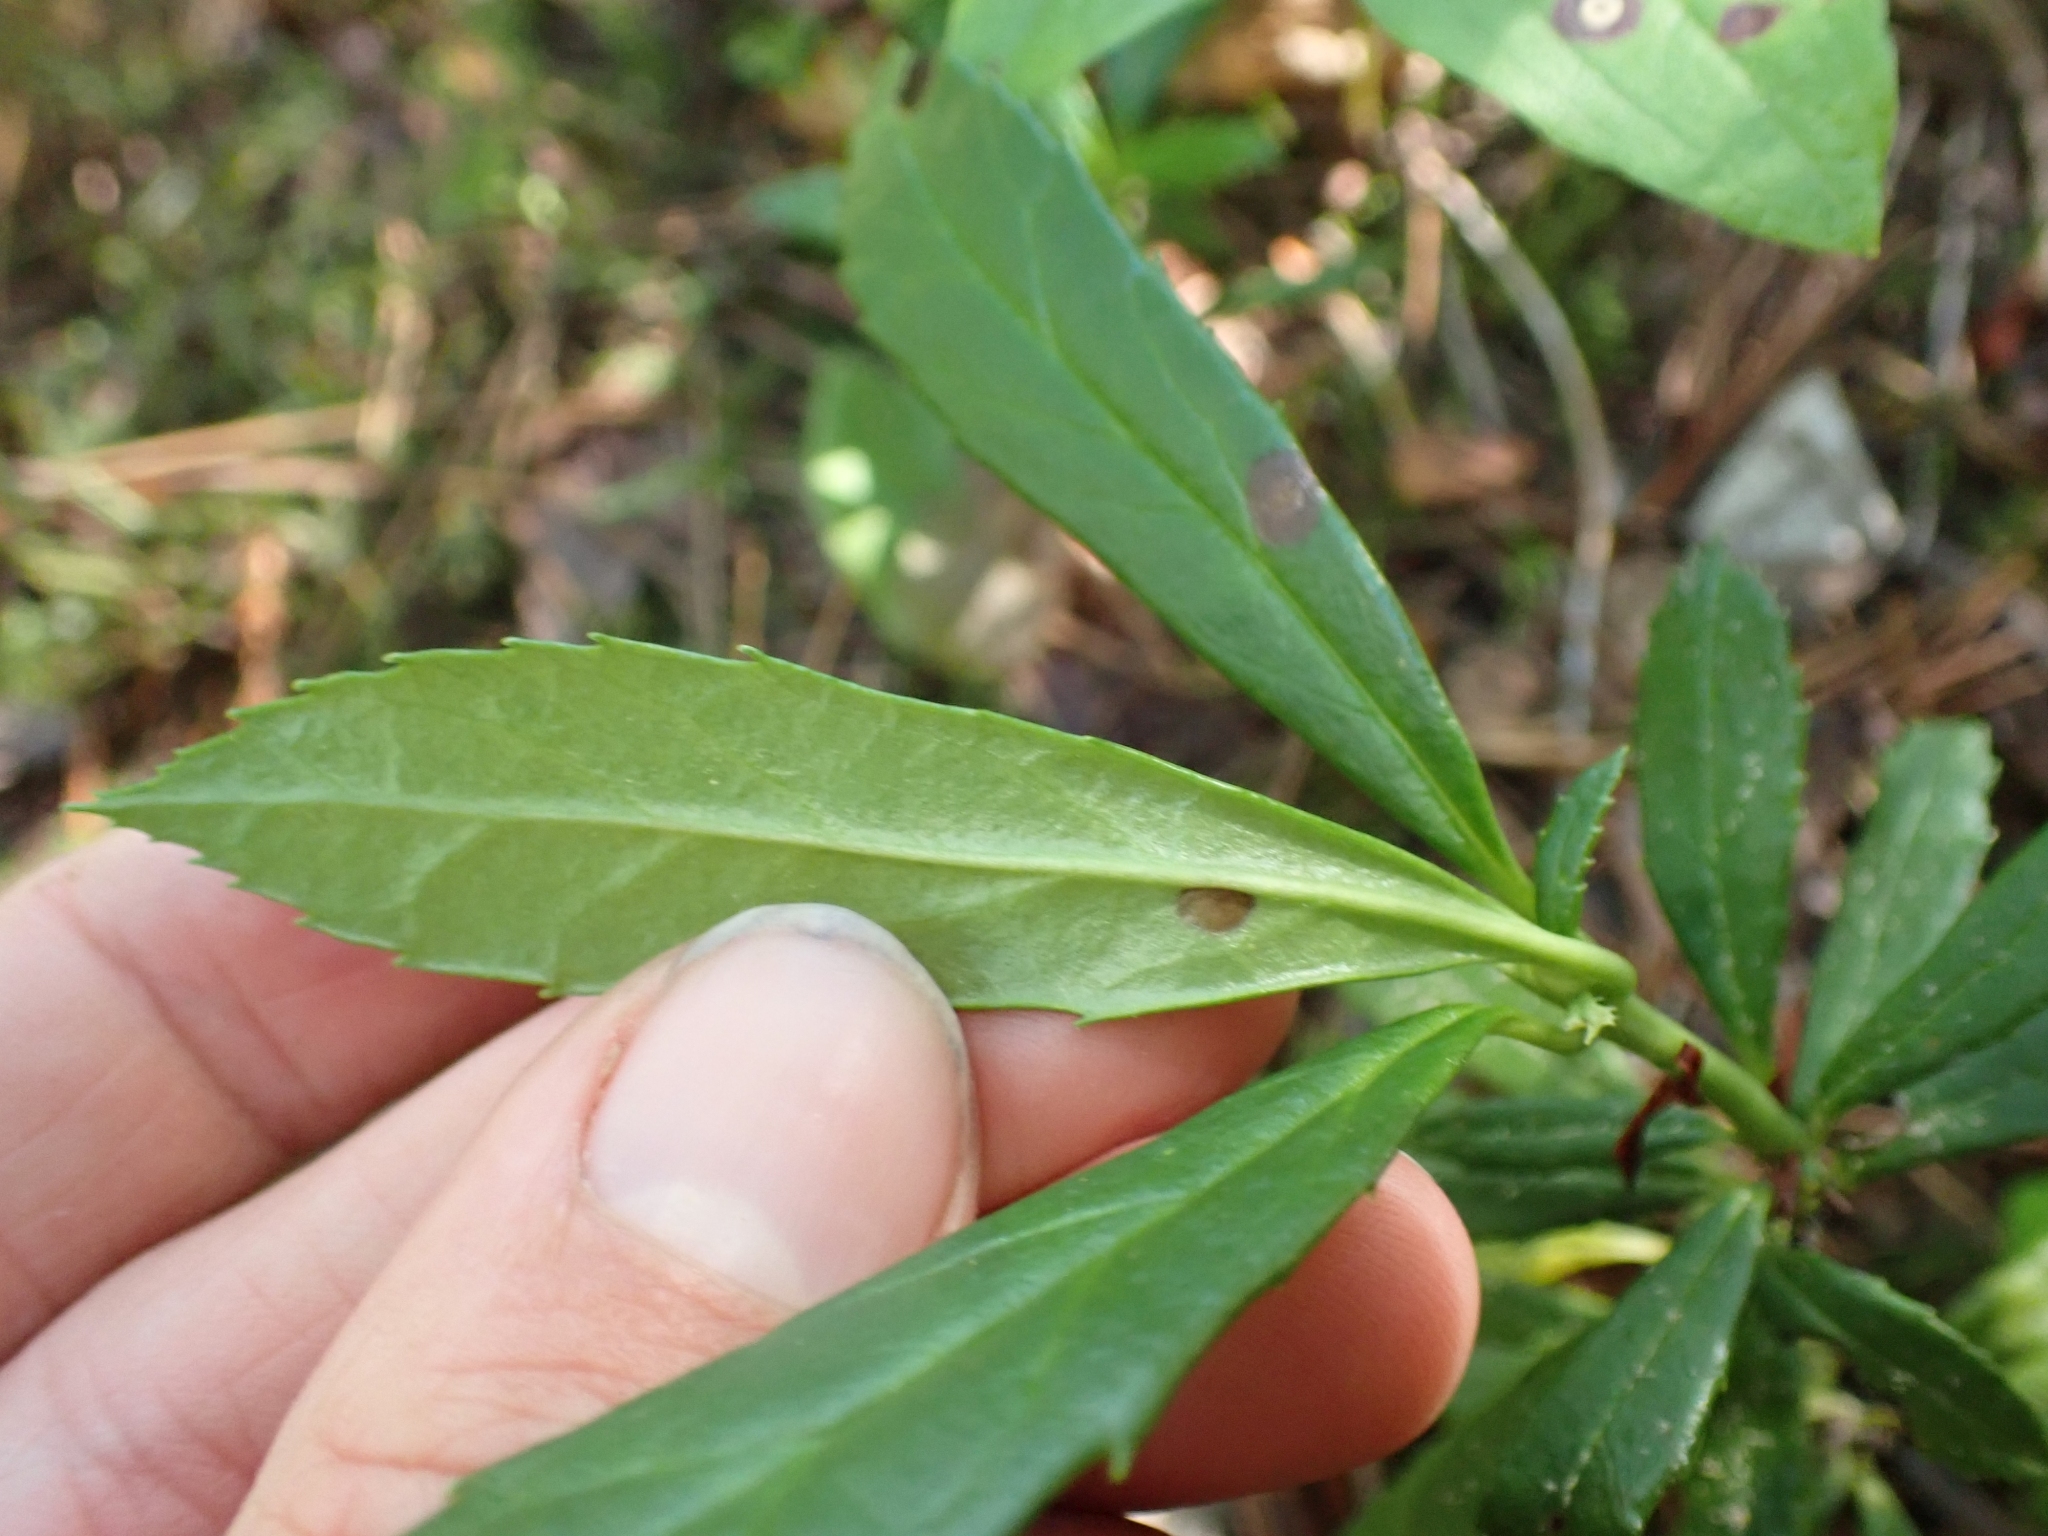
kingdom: Plantae
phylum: Tracheophyta
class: Magnoliopsida
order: Ericales
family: Ericaceae
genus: Chimaphila
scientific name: Chimaphila umbellata
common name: Pipsissewa
